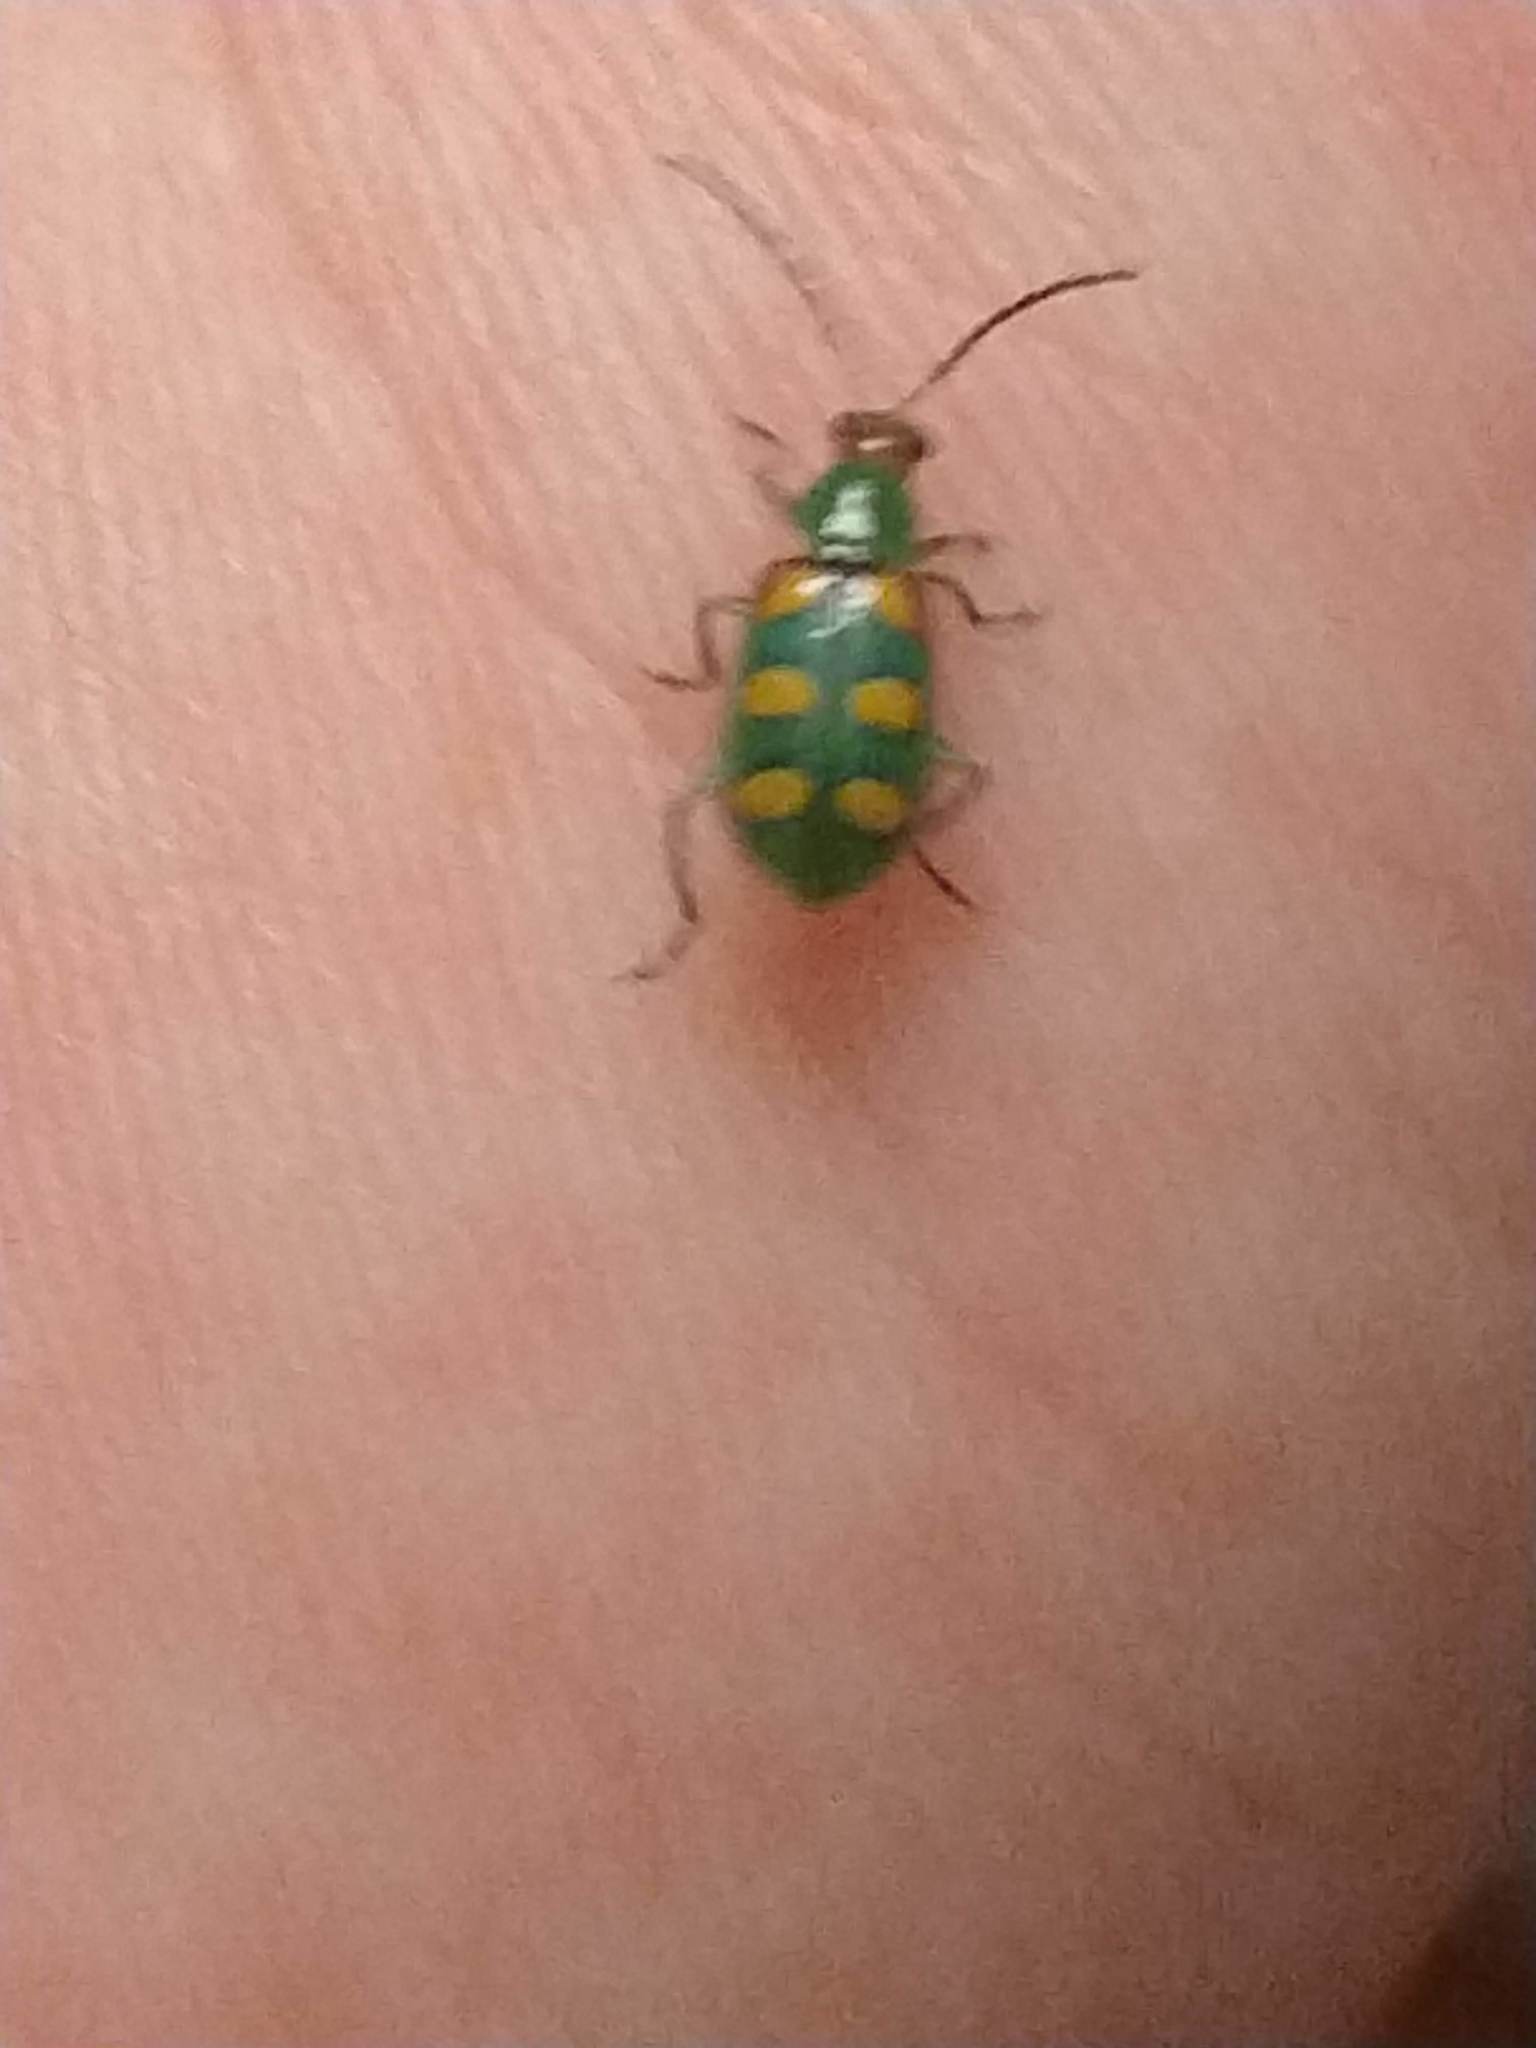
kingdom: Animalia
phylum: Arthropoda
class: Insecta
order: Coleoptera
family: Chrysomelidae
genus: Diabrotica
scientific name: Diabrotica speciosa
